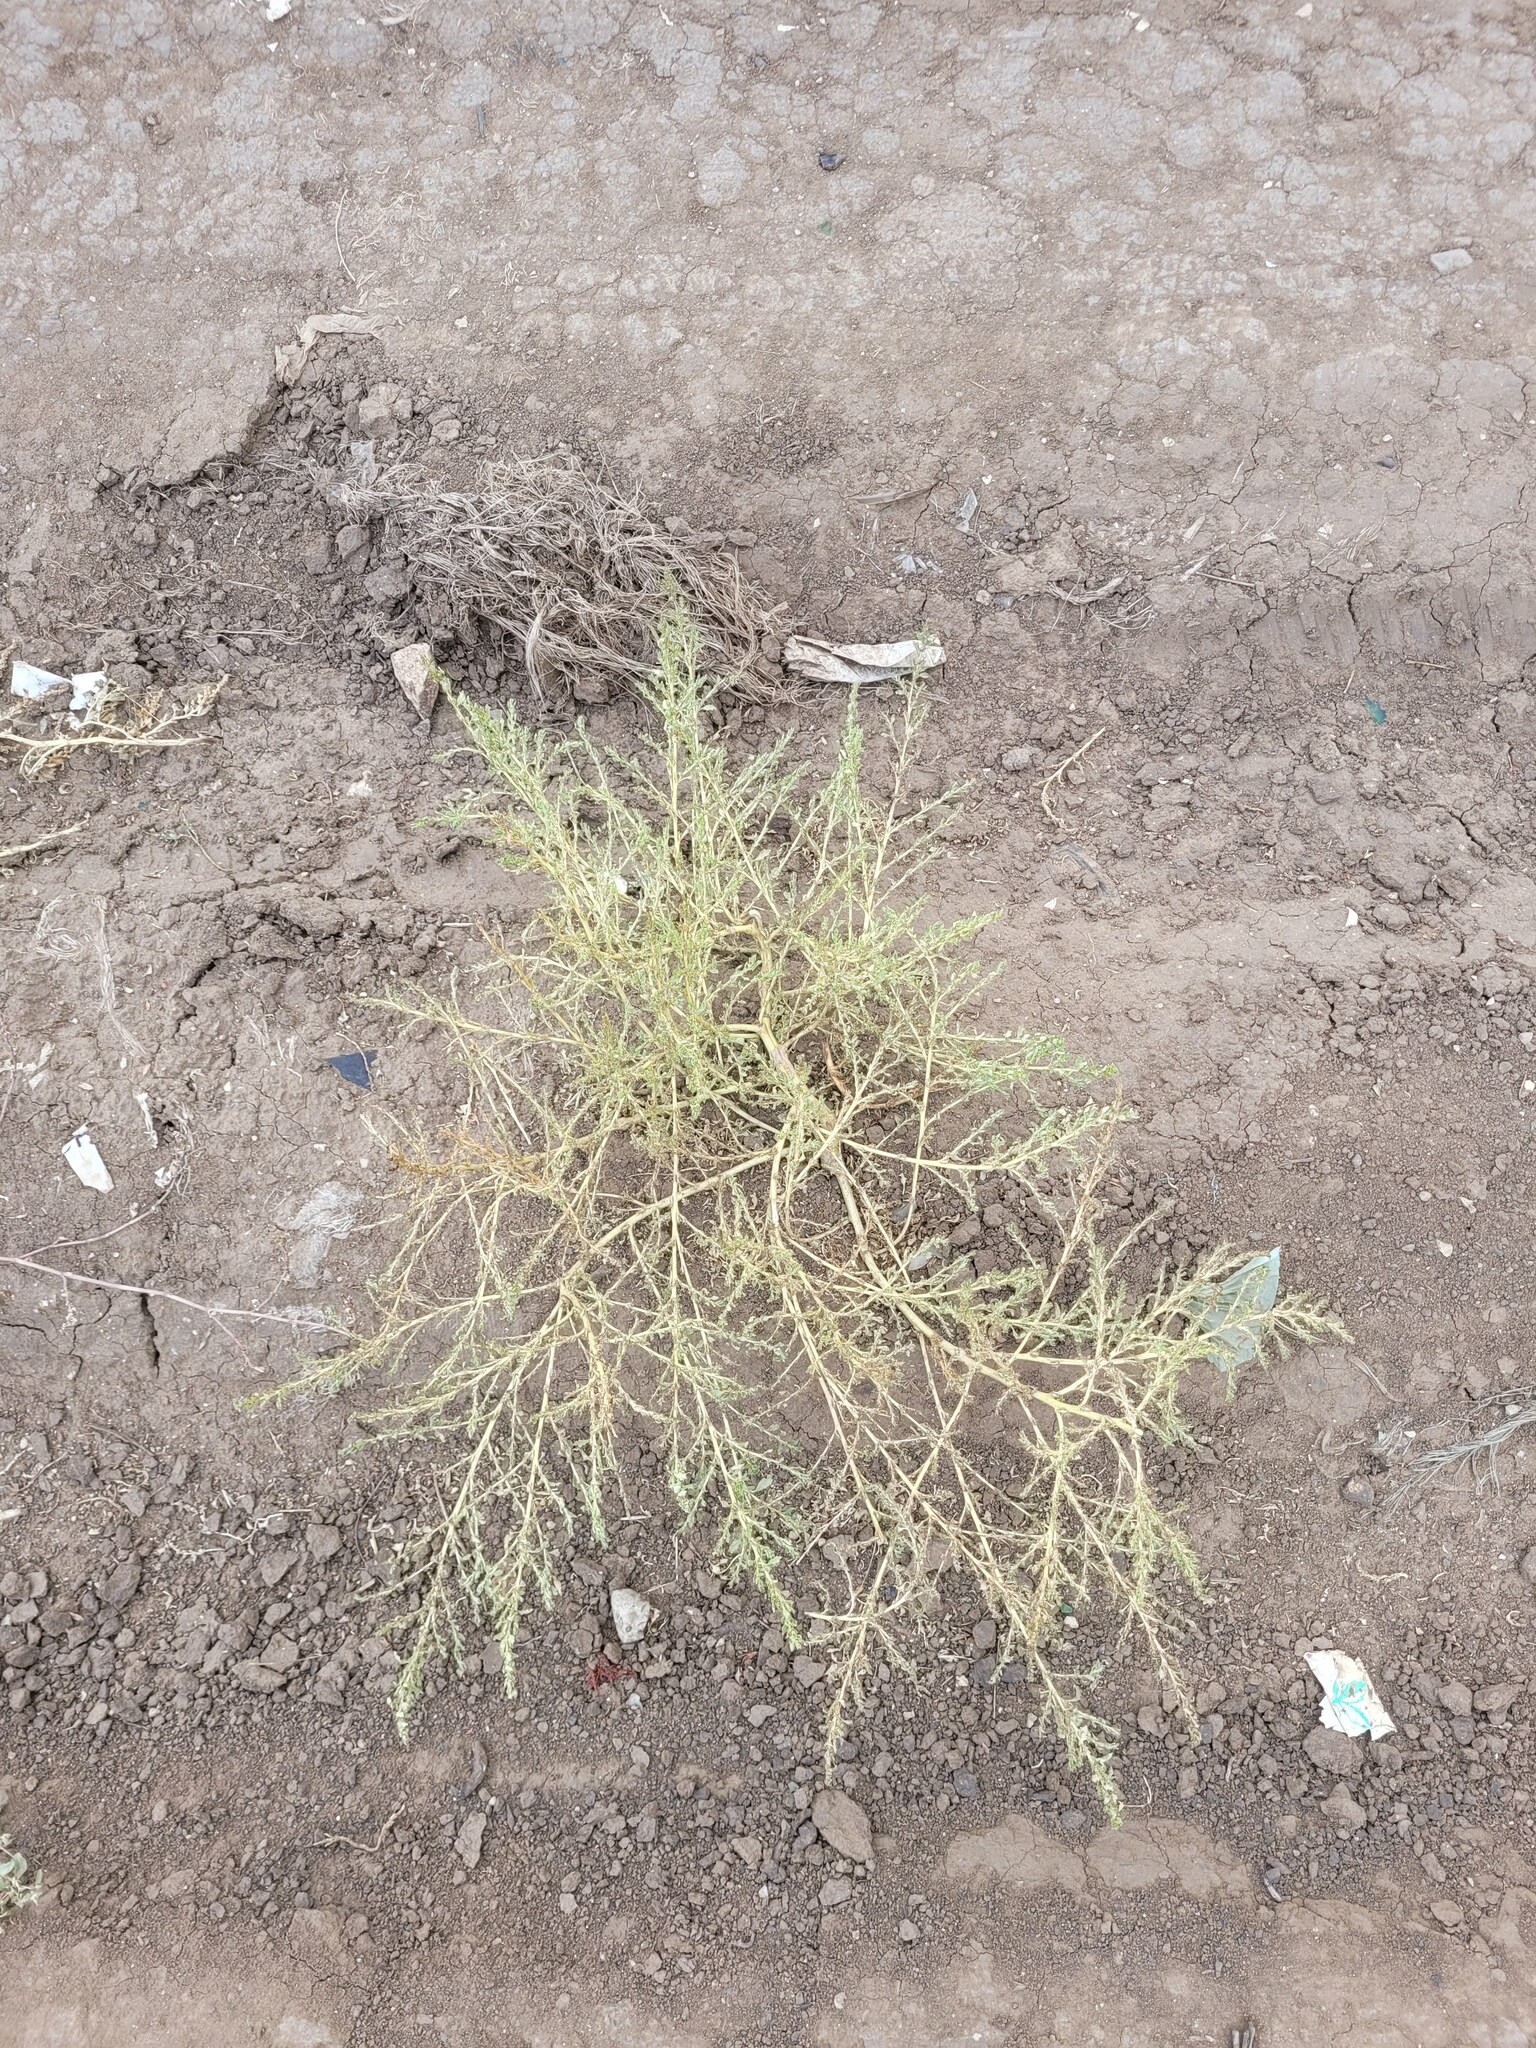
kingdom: Plantae
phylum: Tracheophyta
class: Magnoliopsida
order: Caryophyllales
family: Amaranthaceae
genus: Amaranthus
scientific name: Amaranthus albus
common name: White pigweed
